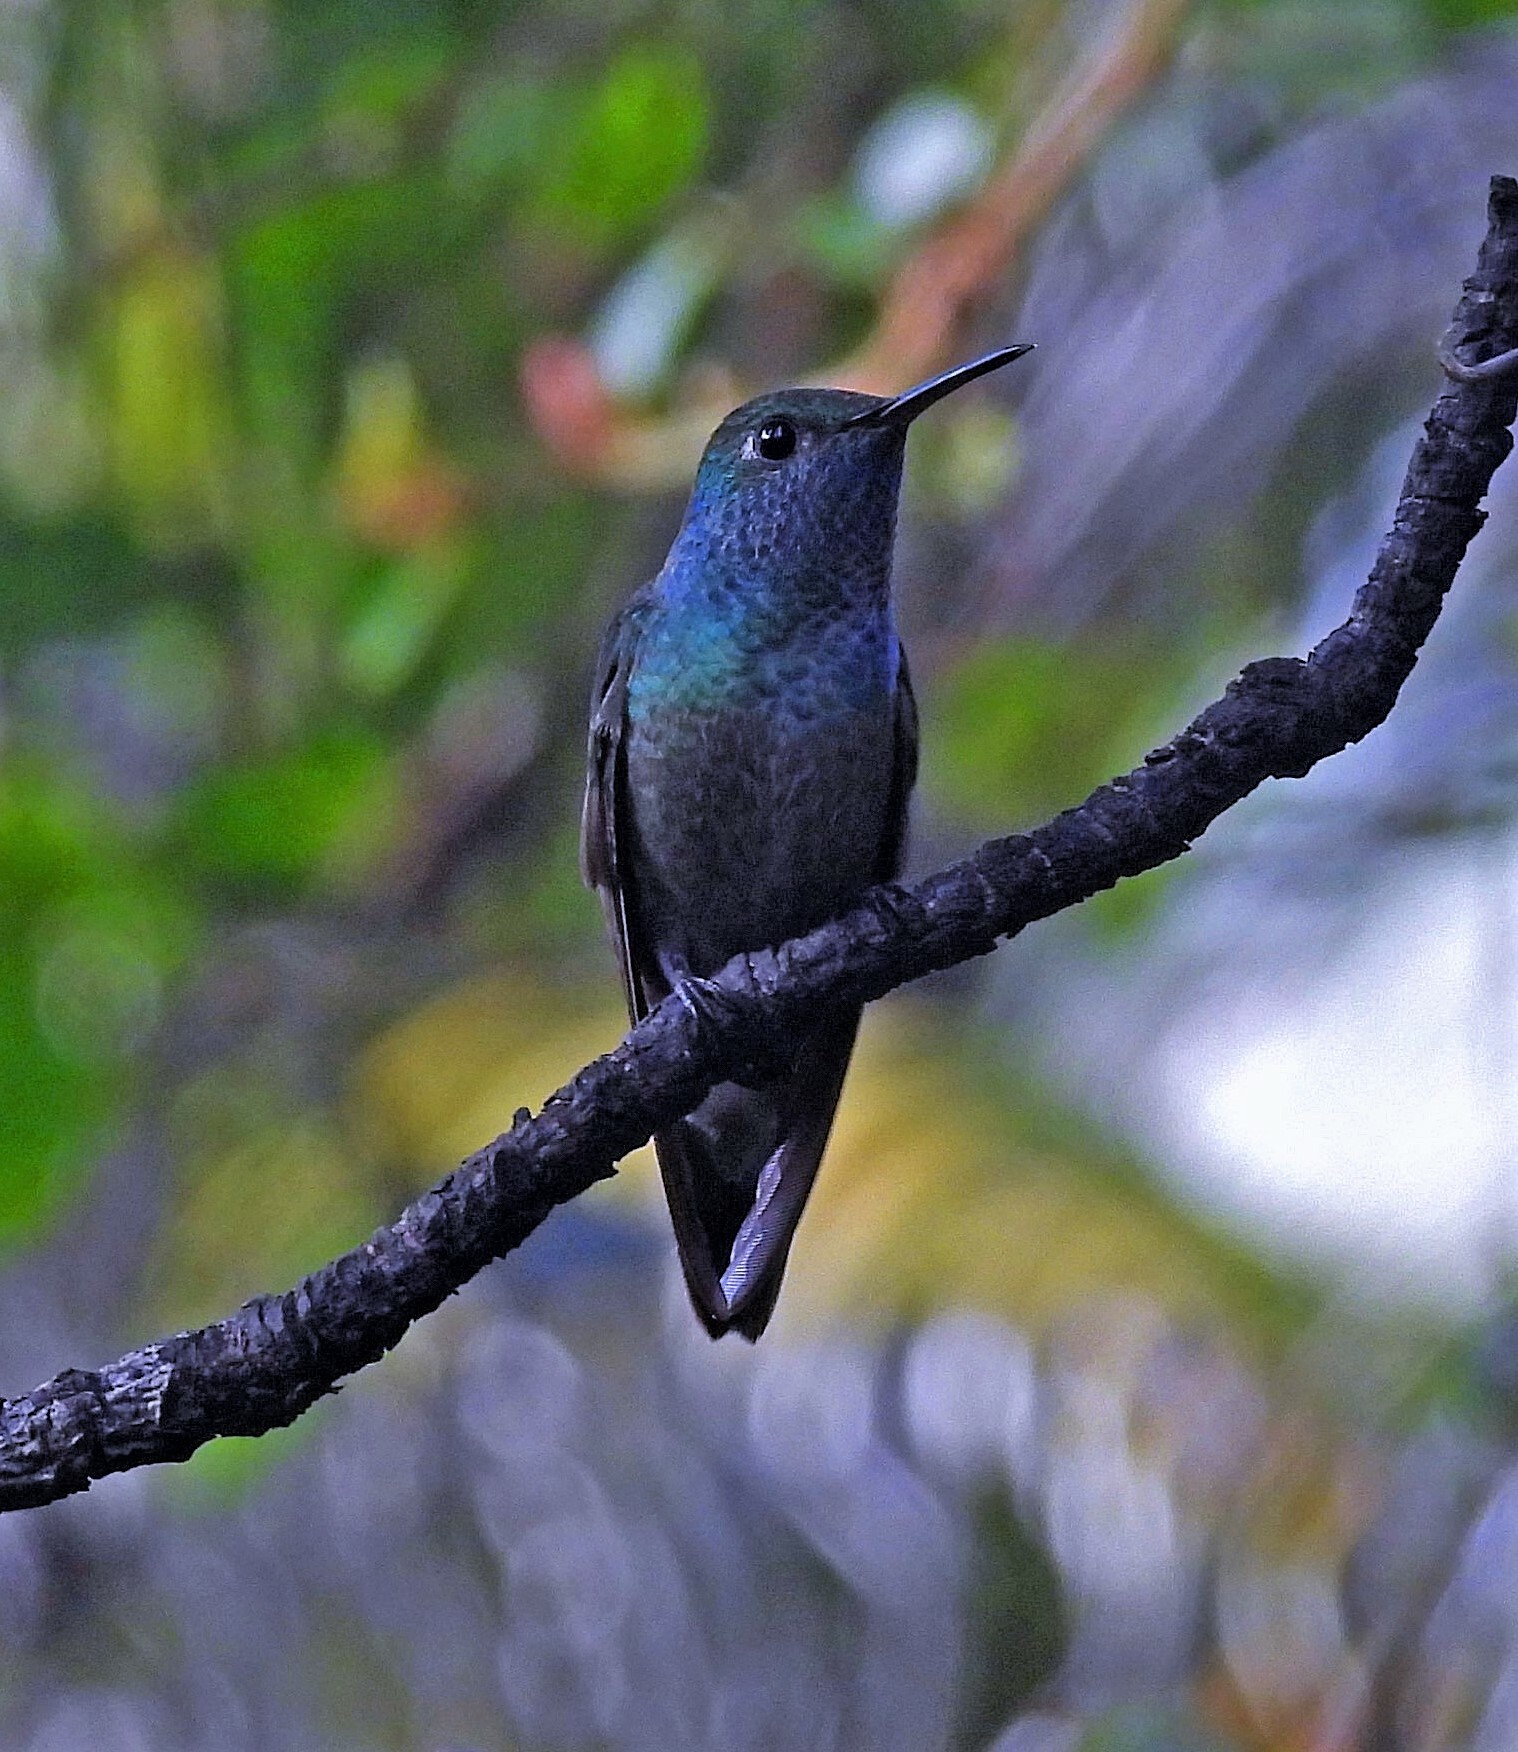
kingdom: Animalia
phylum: Chordata
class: Aves
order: Apodiformes
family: Trochilidae
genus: Chrysuronia
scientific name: Chrysuronia versicolor
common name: Versicolored emerald
